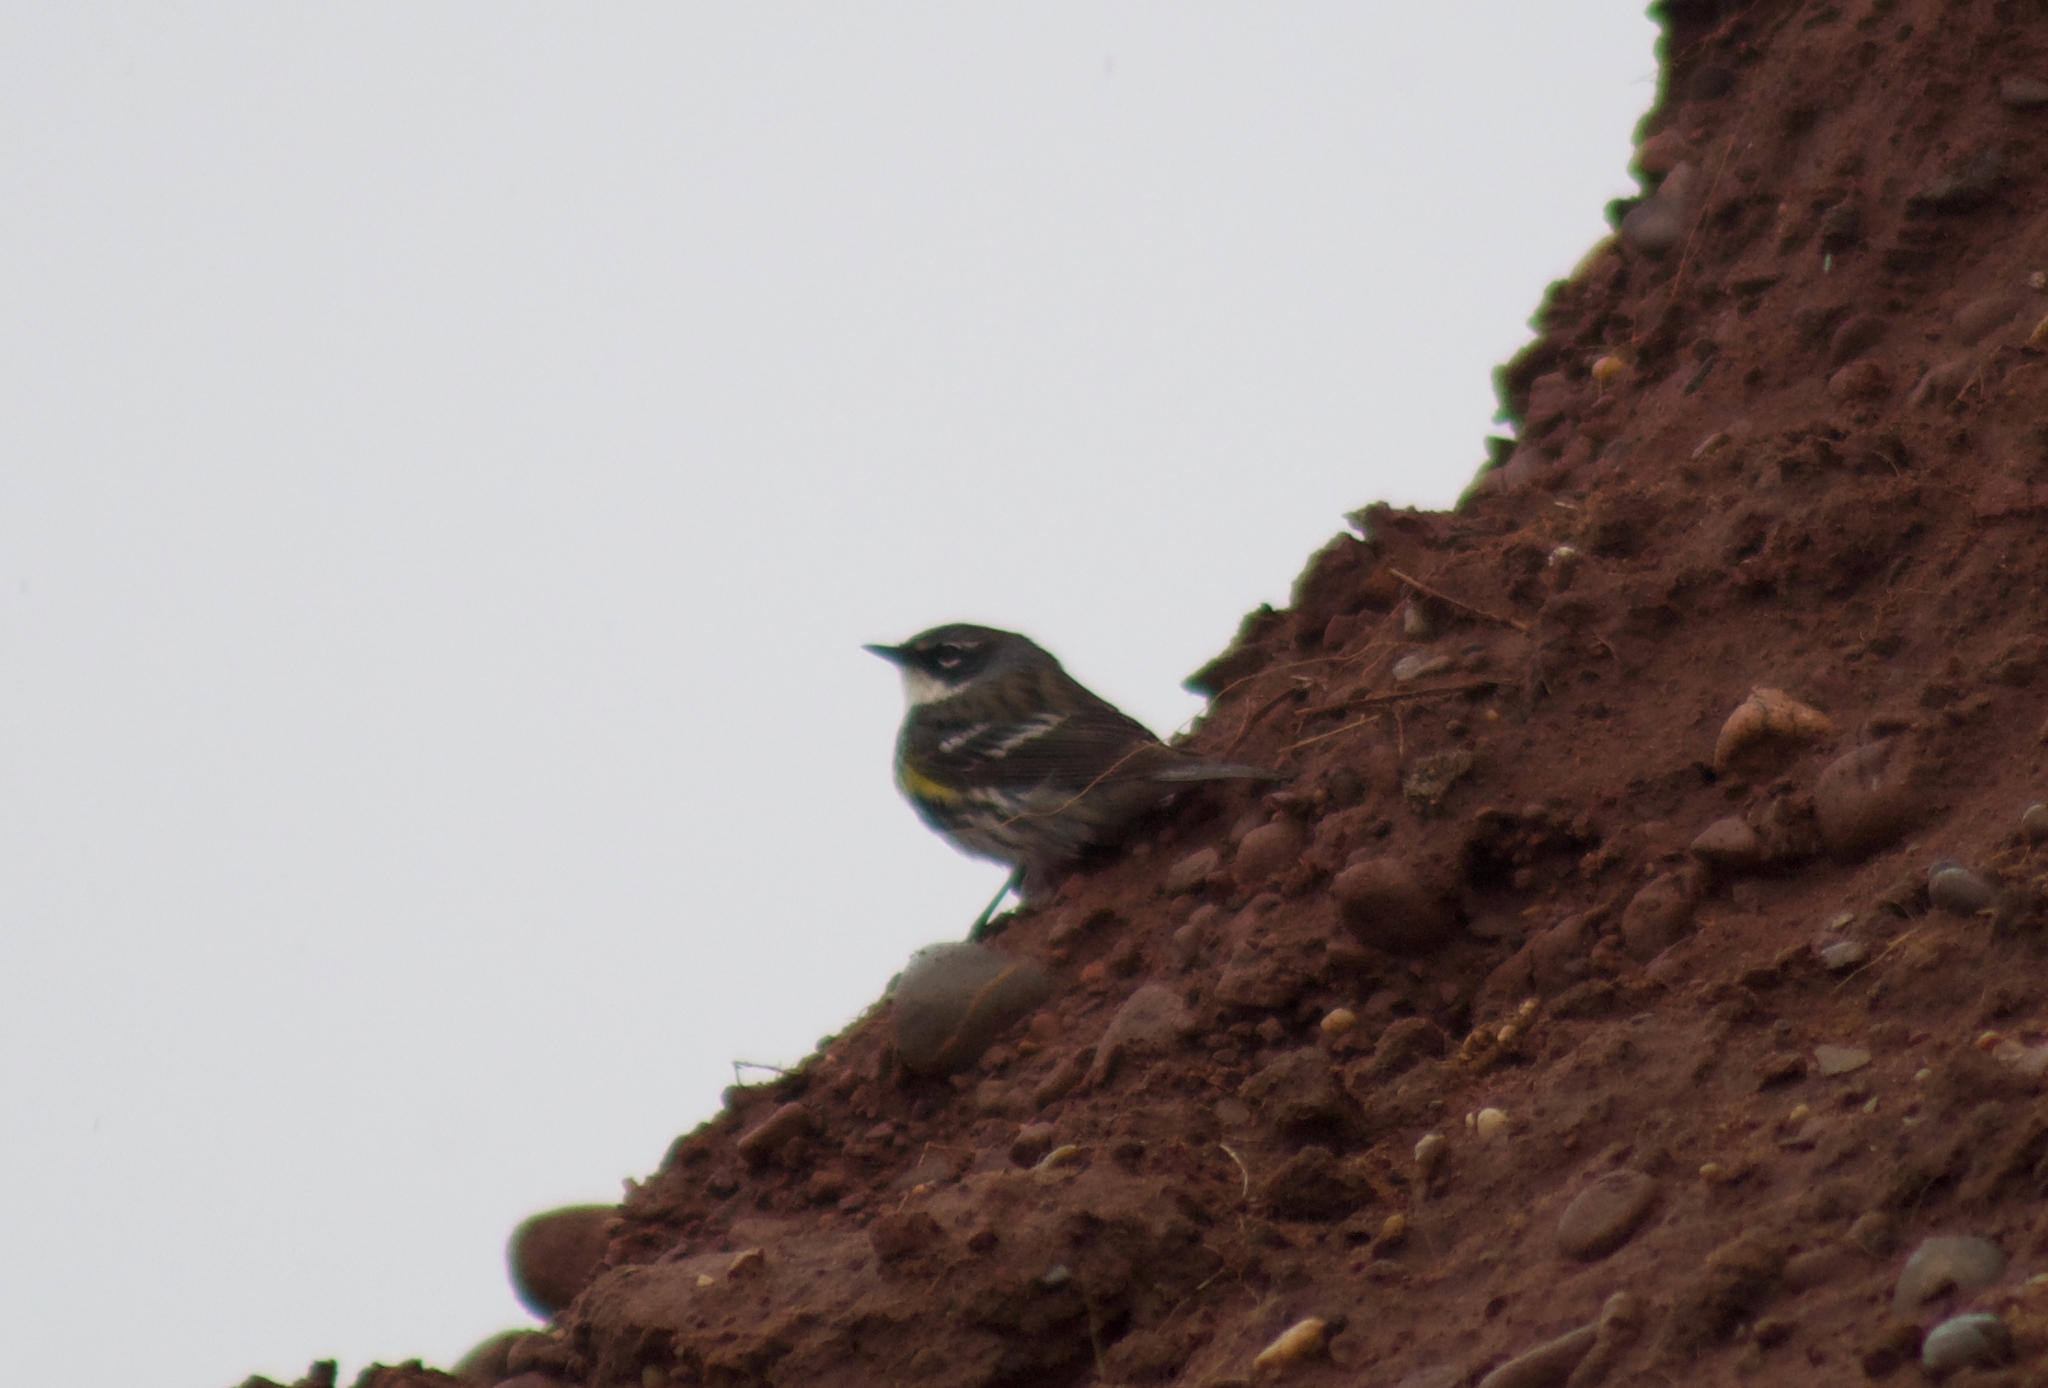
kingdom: Animalia
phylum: Chordata
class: Aves
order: Passeriformes
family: Parulidae
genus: Setophaga
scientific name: Setophaga coronata
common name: Myrtle warbler
